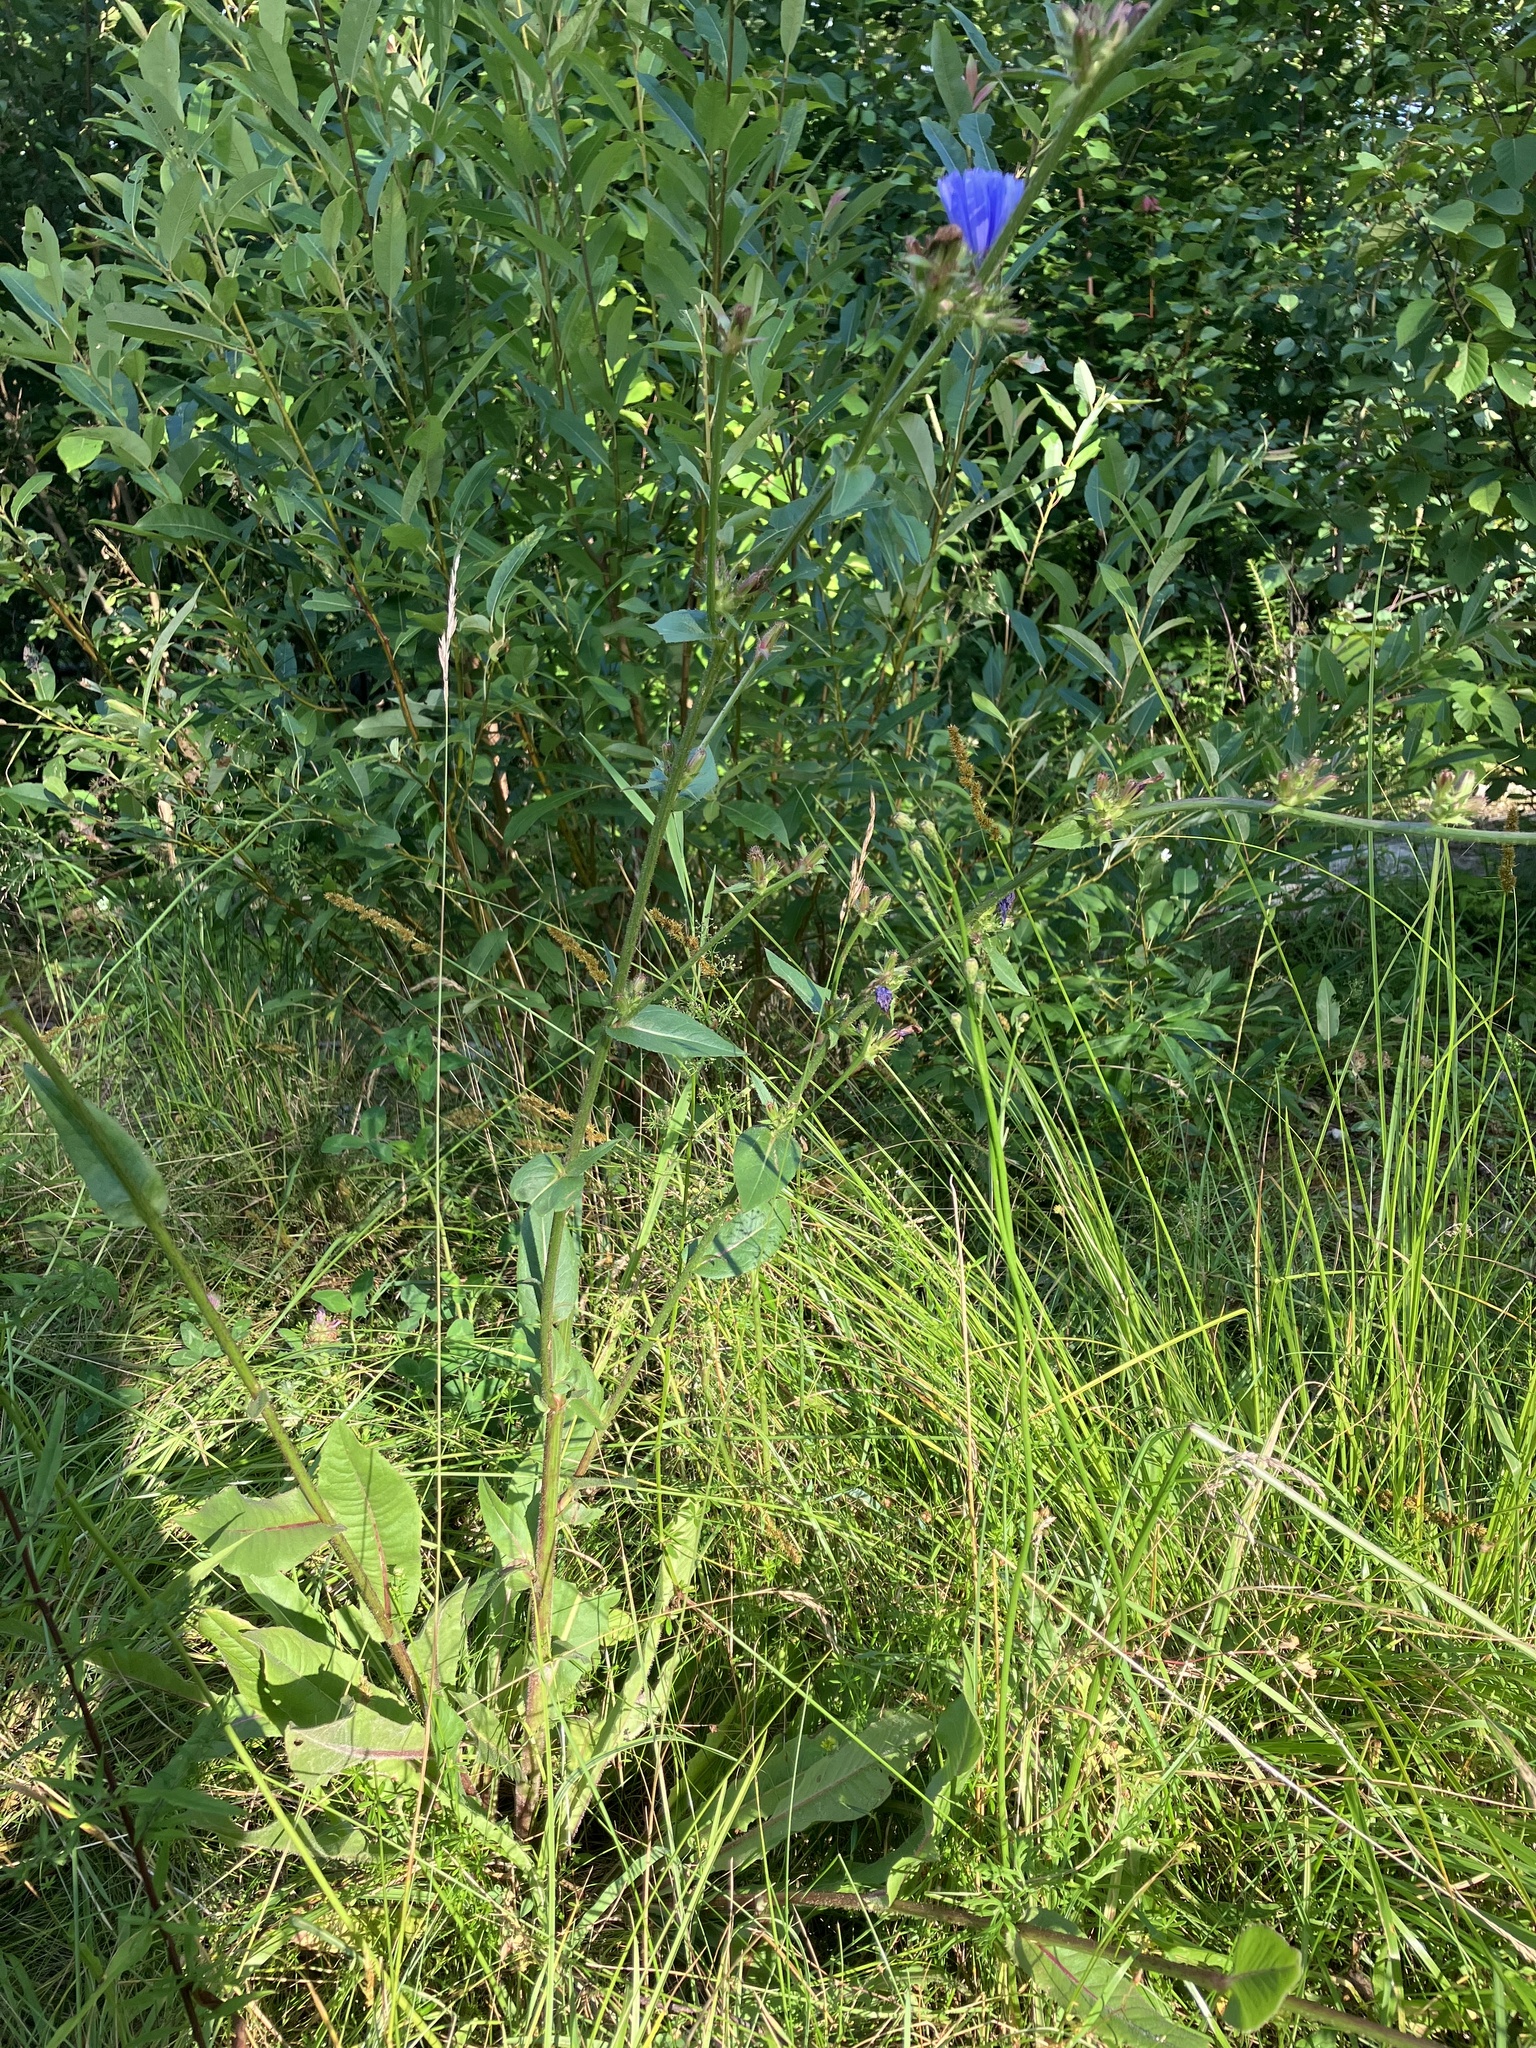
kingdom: Plantae
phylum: Tracheophyta
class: Magnoliopsida
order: Asterales
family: Asteraceae
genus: Cichorium
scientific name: Cichorium intybus
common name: Chicory
